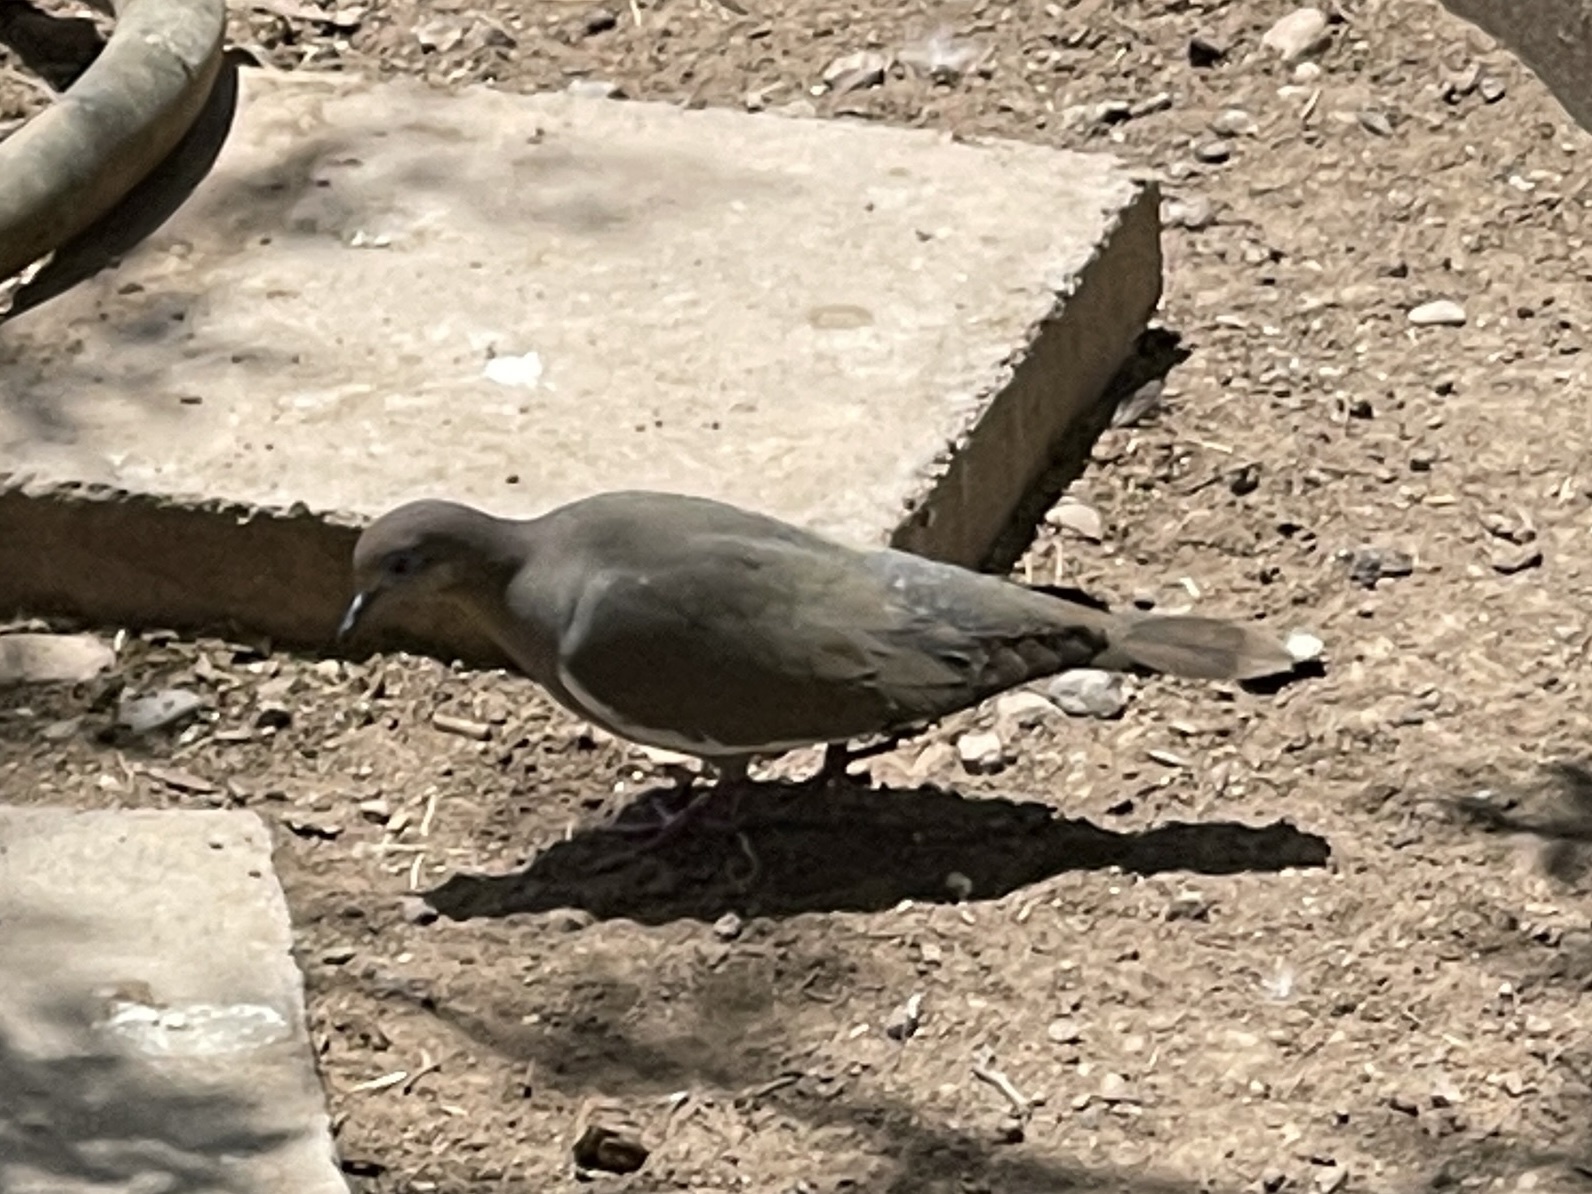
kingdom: Animalia
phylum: Chordata
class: Aves
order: Columbiformes
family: Columbidae
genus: Zenaida
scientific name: Zenaida asiatica
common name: White-winged dove
